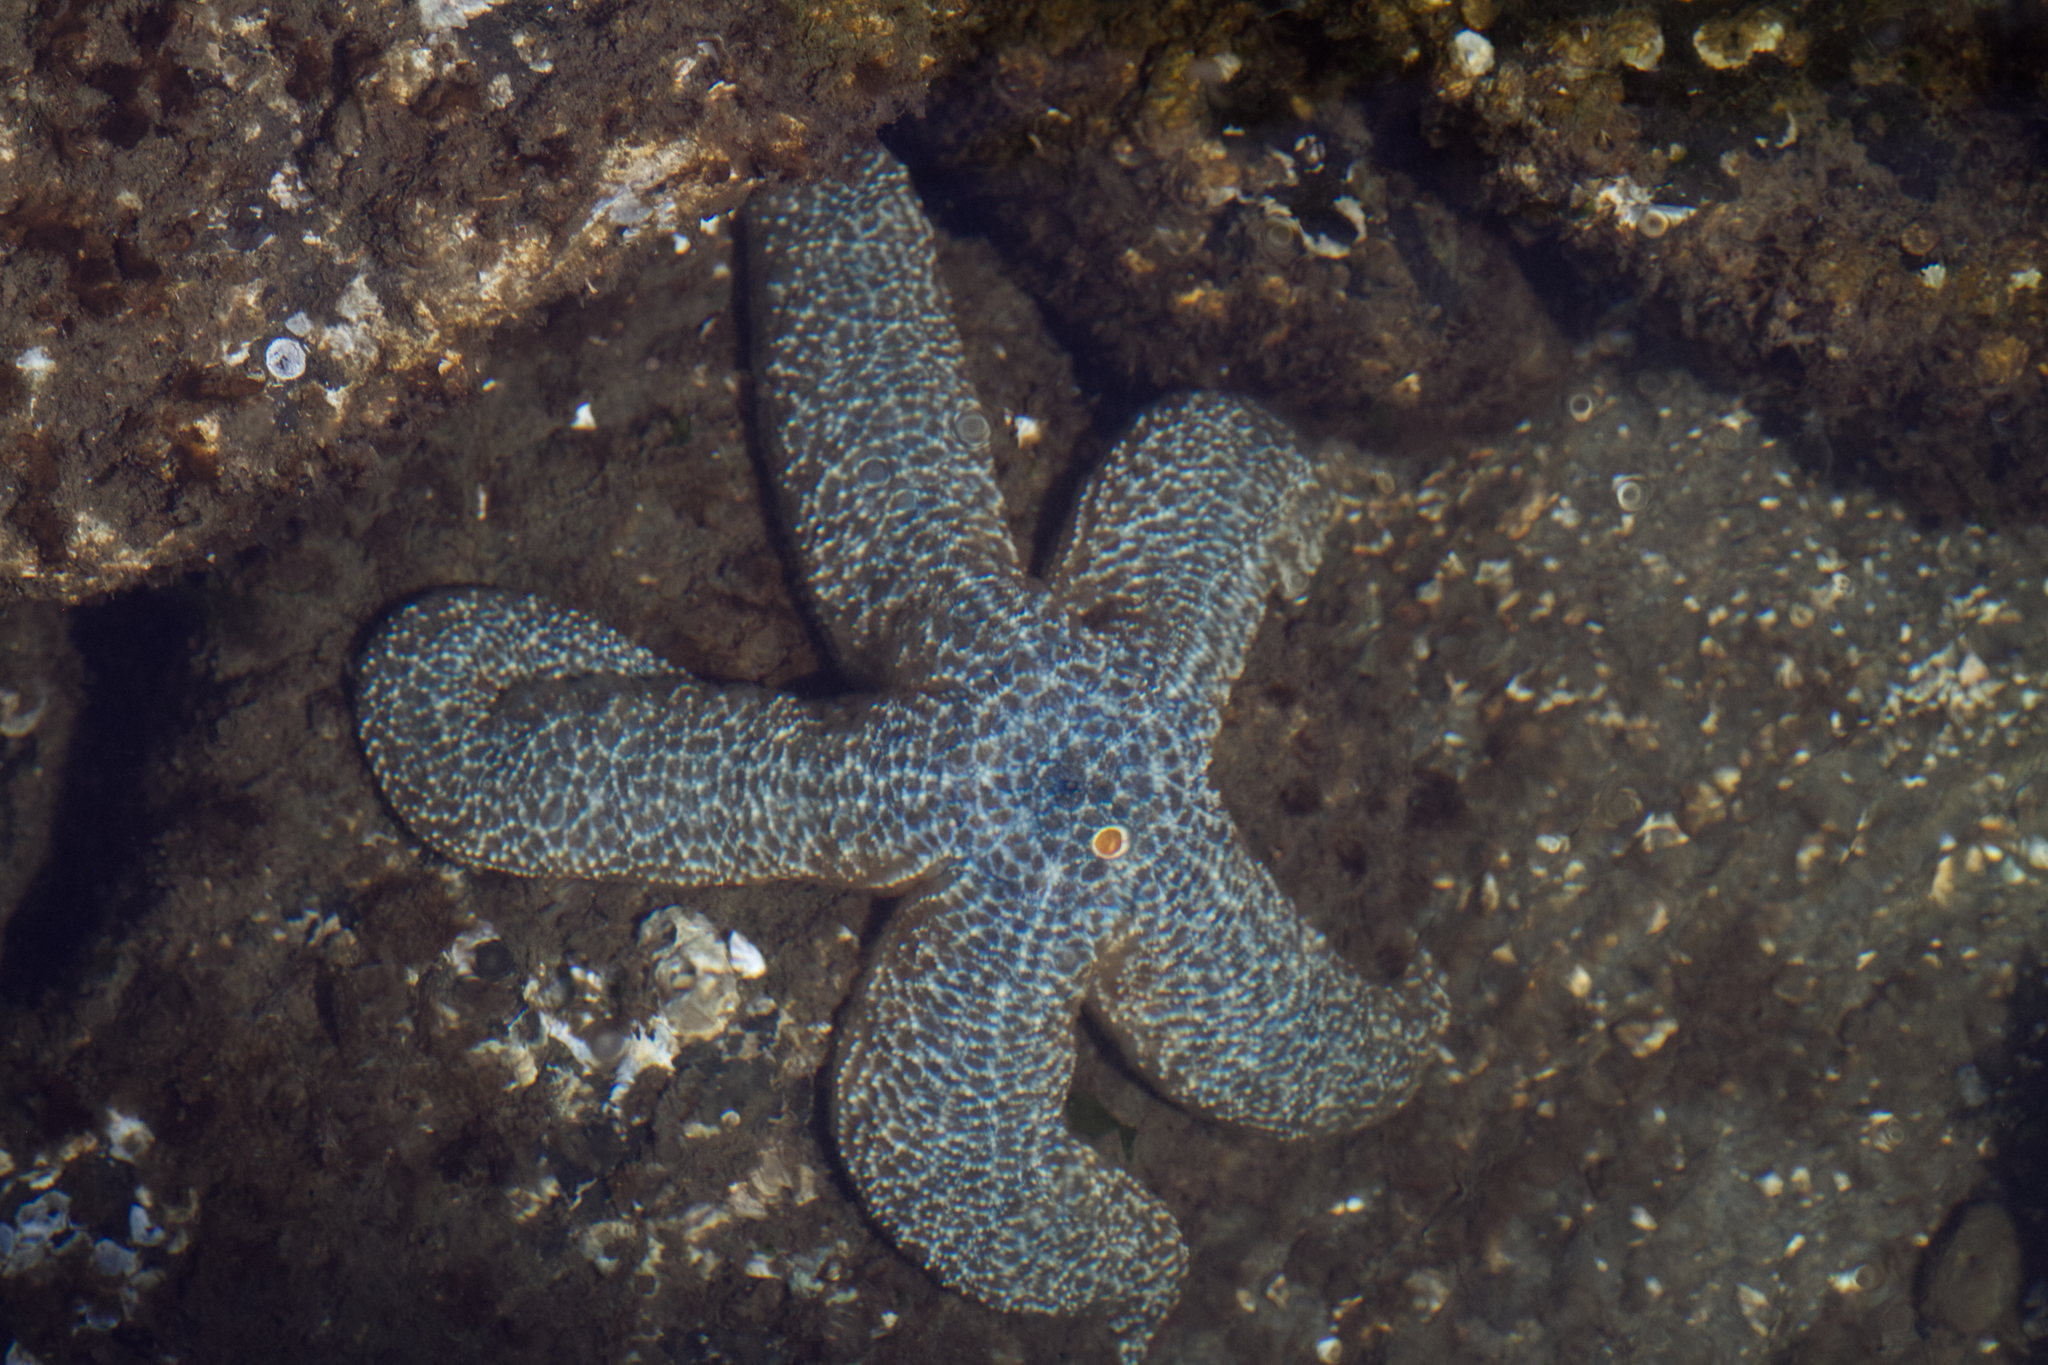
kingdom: Animalia
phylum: Echinodermata
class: Asteroidea
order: Forcipulatida
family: Asteriidae
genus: Evasterias
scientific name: Evasterias troschelii
